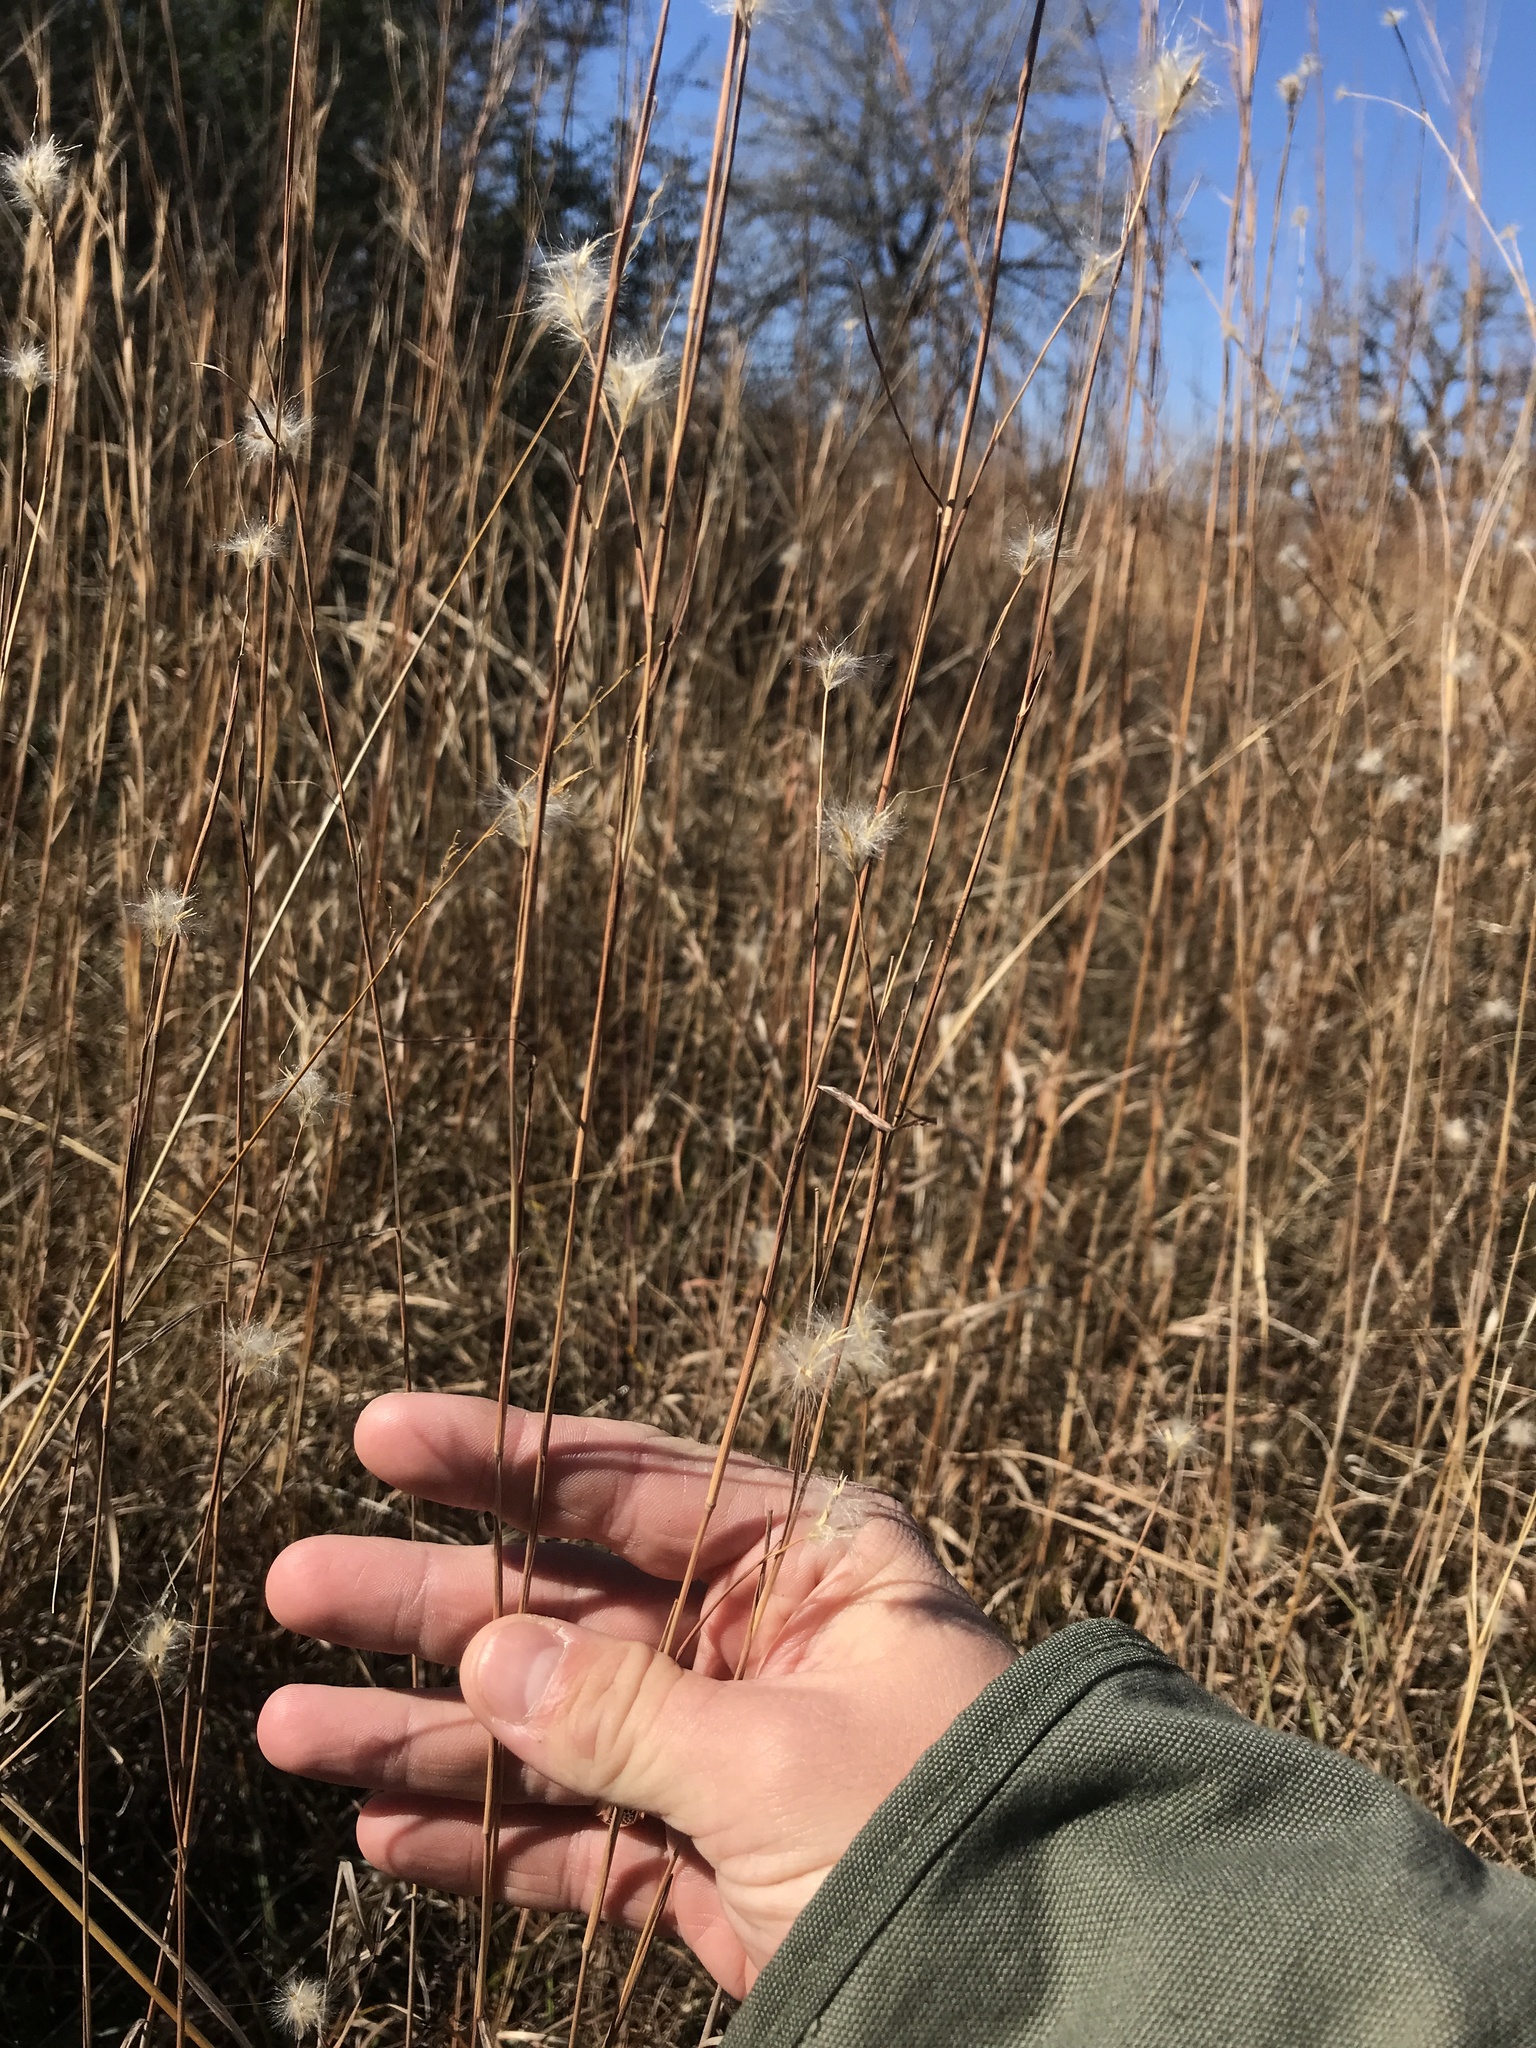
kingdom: Plantae
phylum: Tracheophyta
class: Liliopsida
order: Poales
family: Poaceae
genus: Andropogon
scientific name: Andropogon ternarius
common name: Split bluestem
